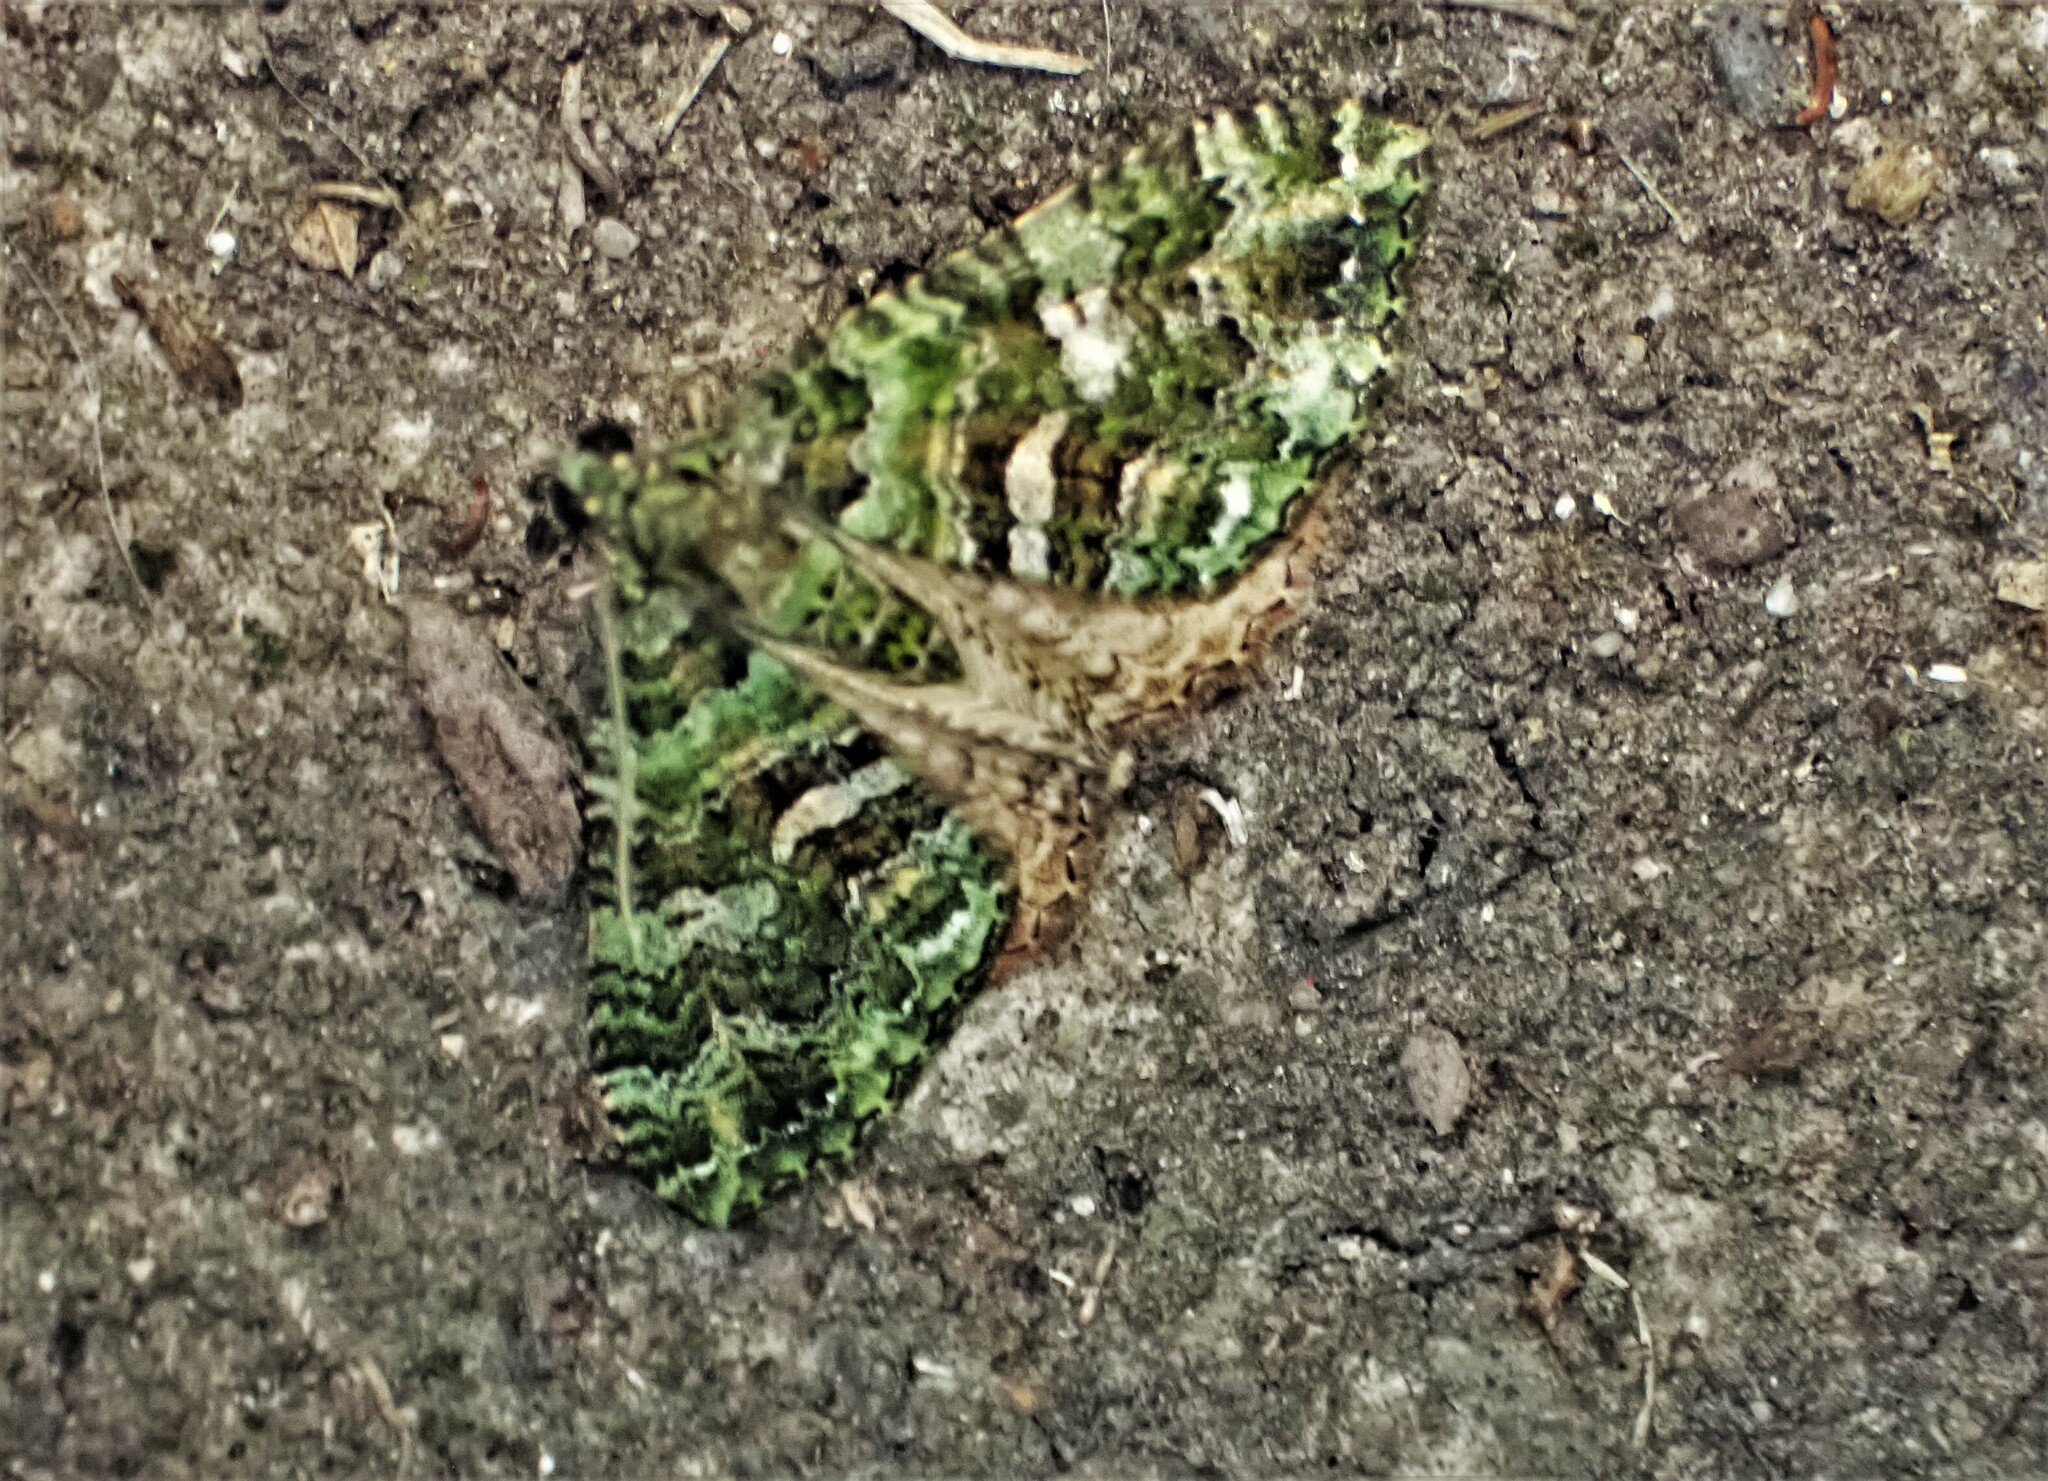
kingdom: Animalia
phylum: Arthropoda
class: Insecta
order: Lepidoptera
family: Geometridae
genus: Austrocidaria
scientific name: Austrocidaria similata
